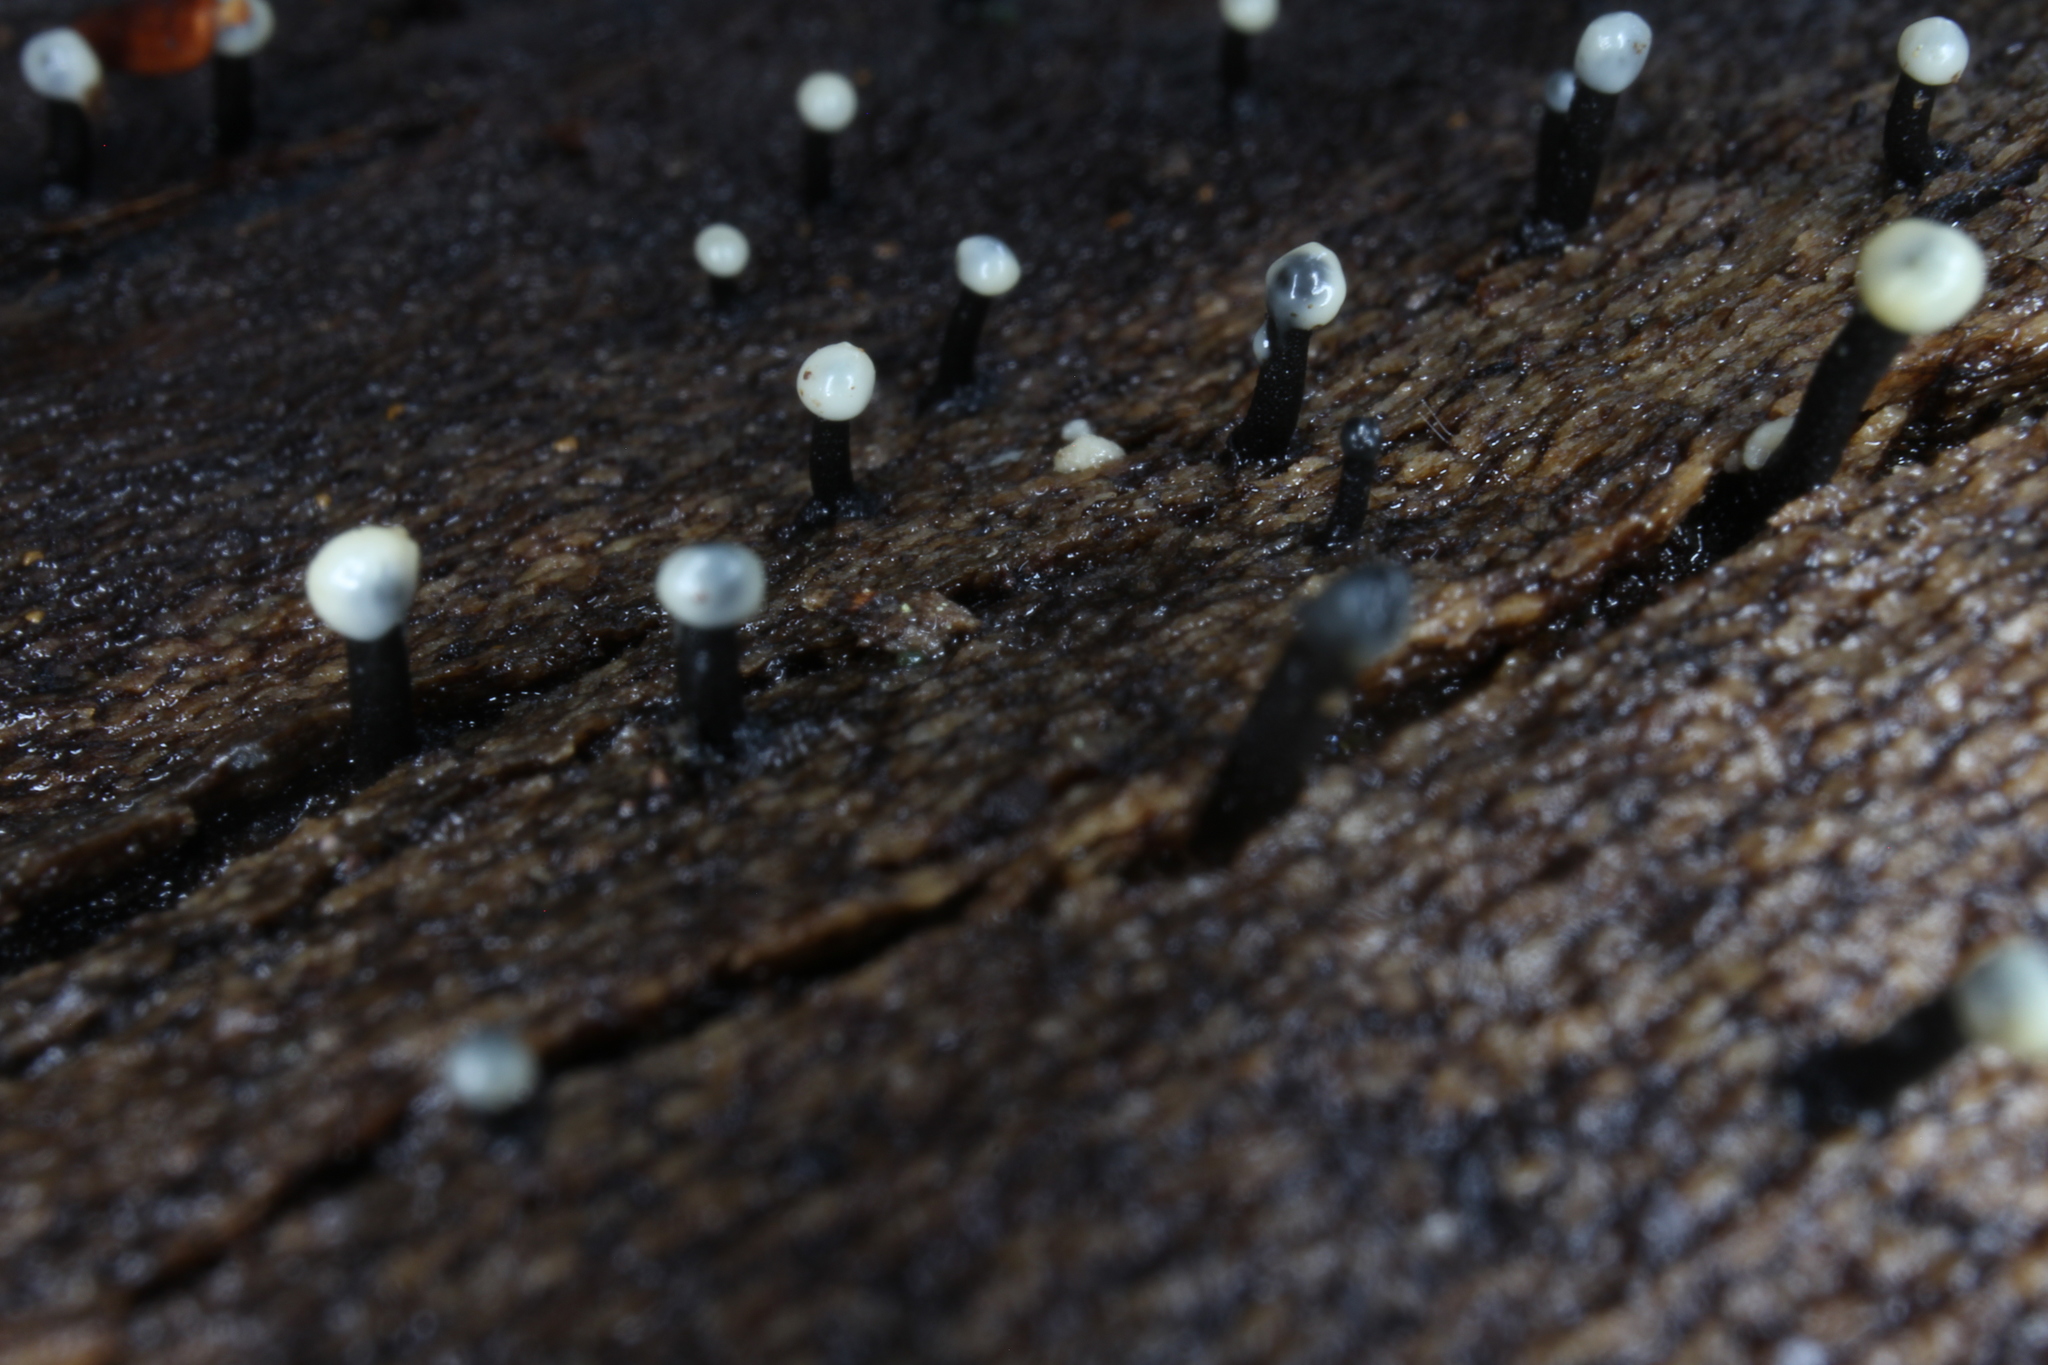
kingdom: Fungi
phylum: Ascomycota
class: Leotiomycetes
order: Helotiales
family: Bulgariaceae
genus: Holwaya
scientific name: Holwaya mucida
